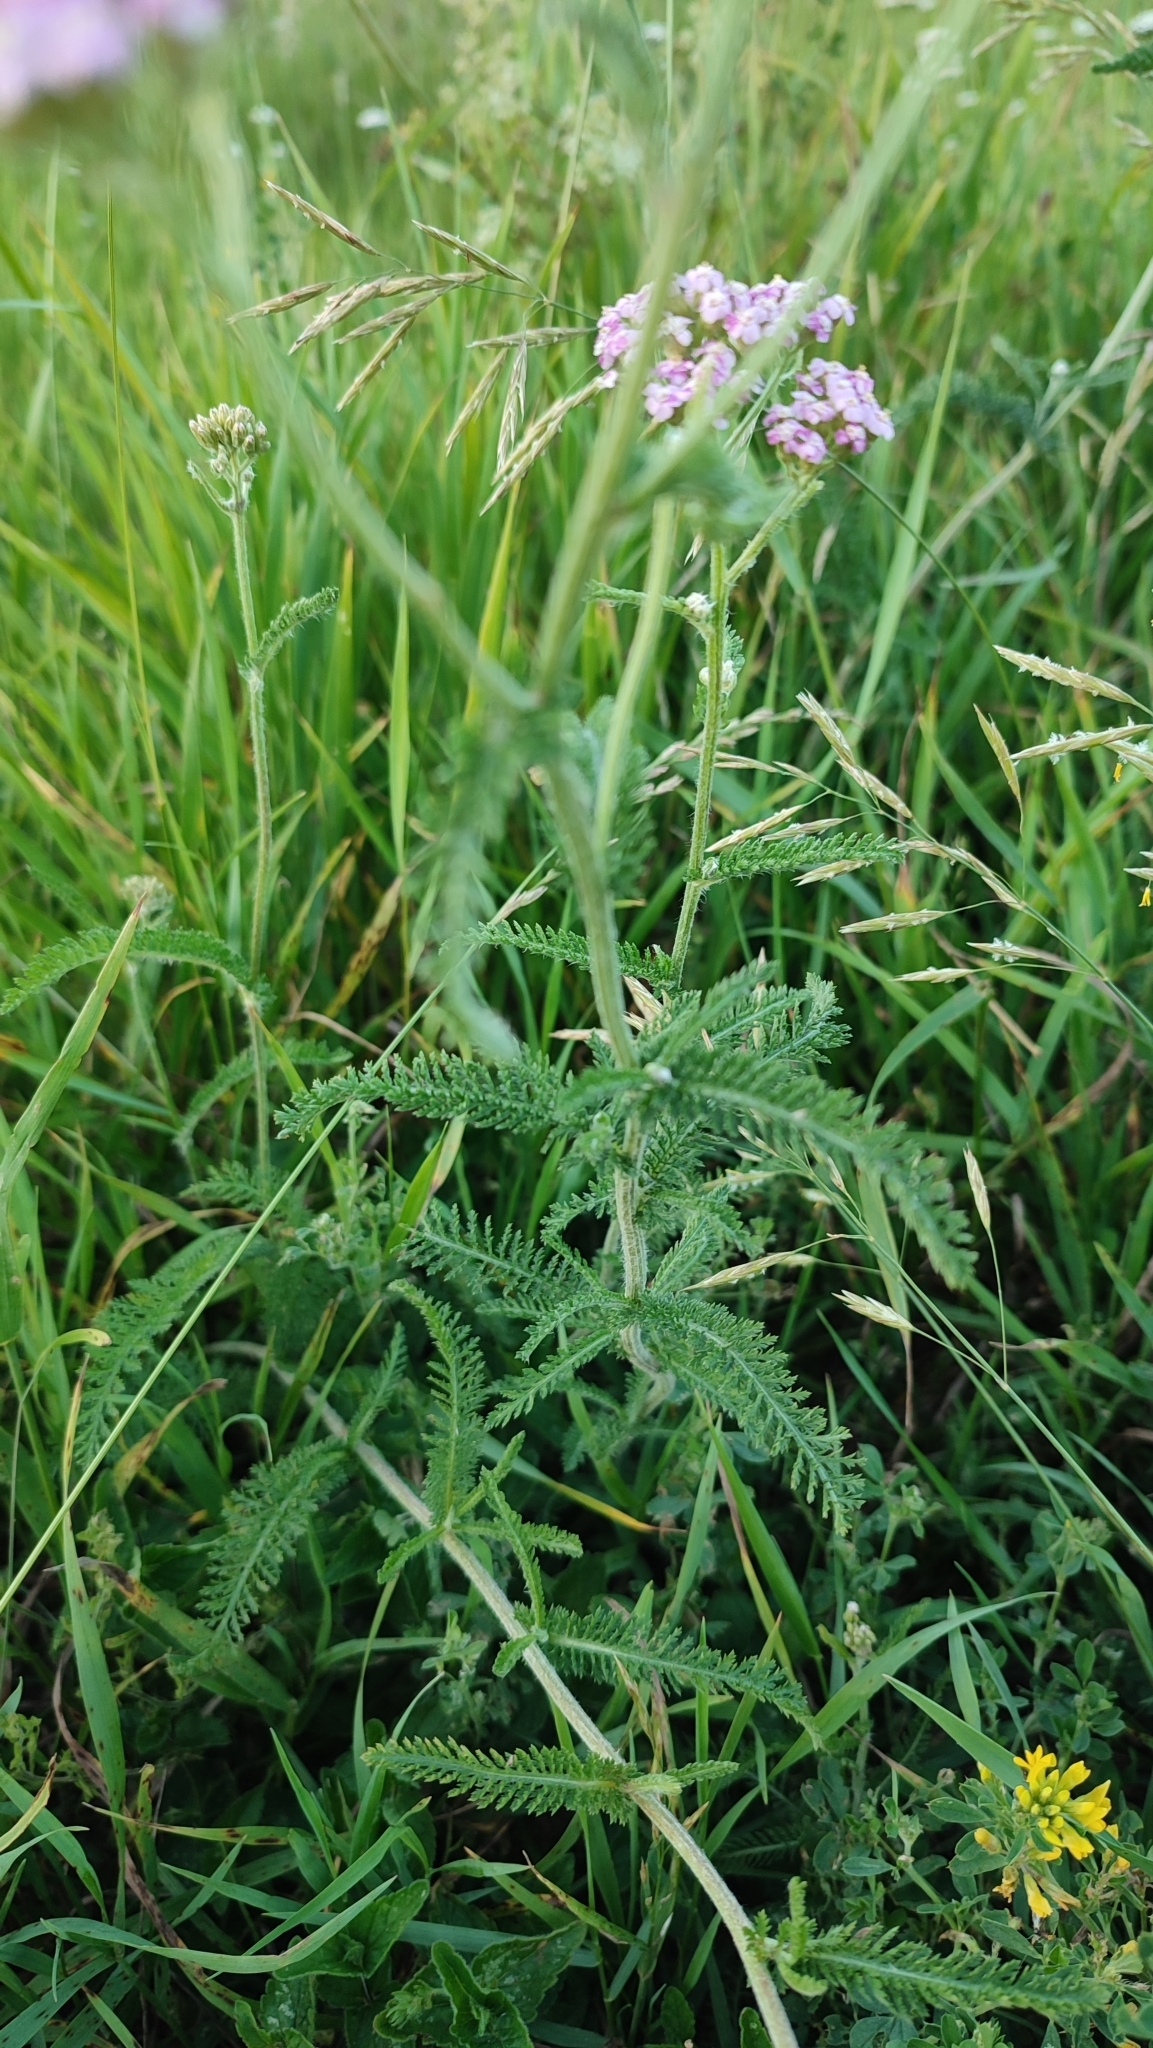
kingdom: Plantae
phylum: Tracheophyta
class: Magnoliopsida
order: Asterales
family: Asteraceae
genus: Achillea
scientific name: Achillea millefolium
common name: Yarrow
